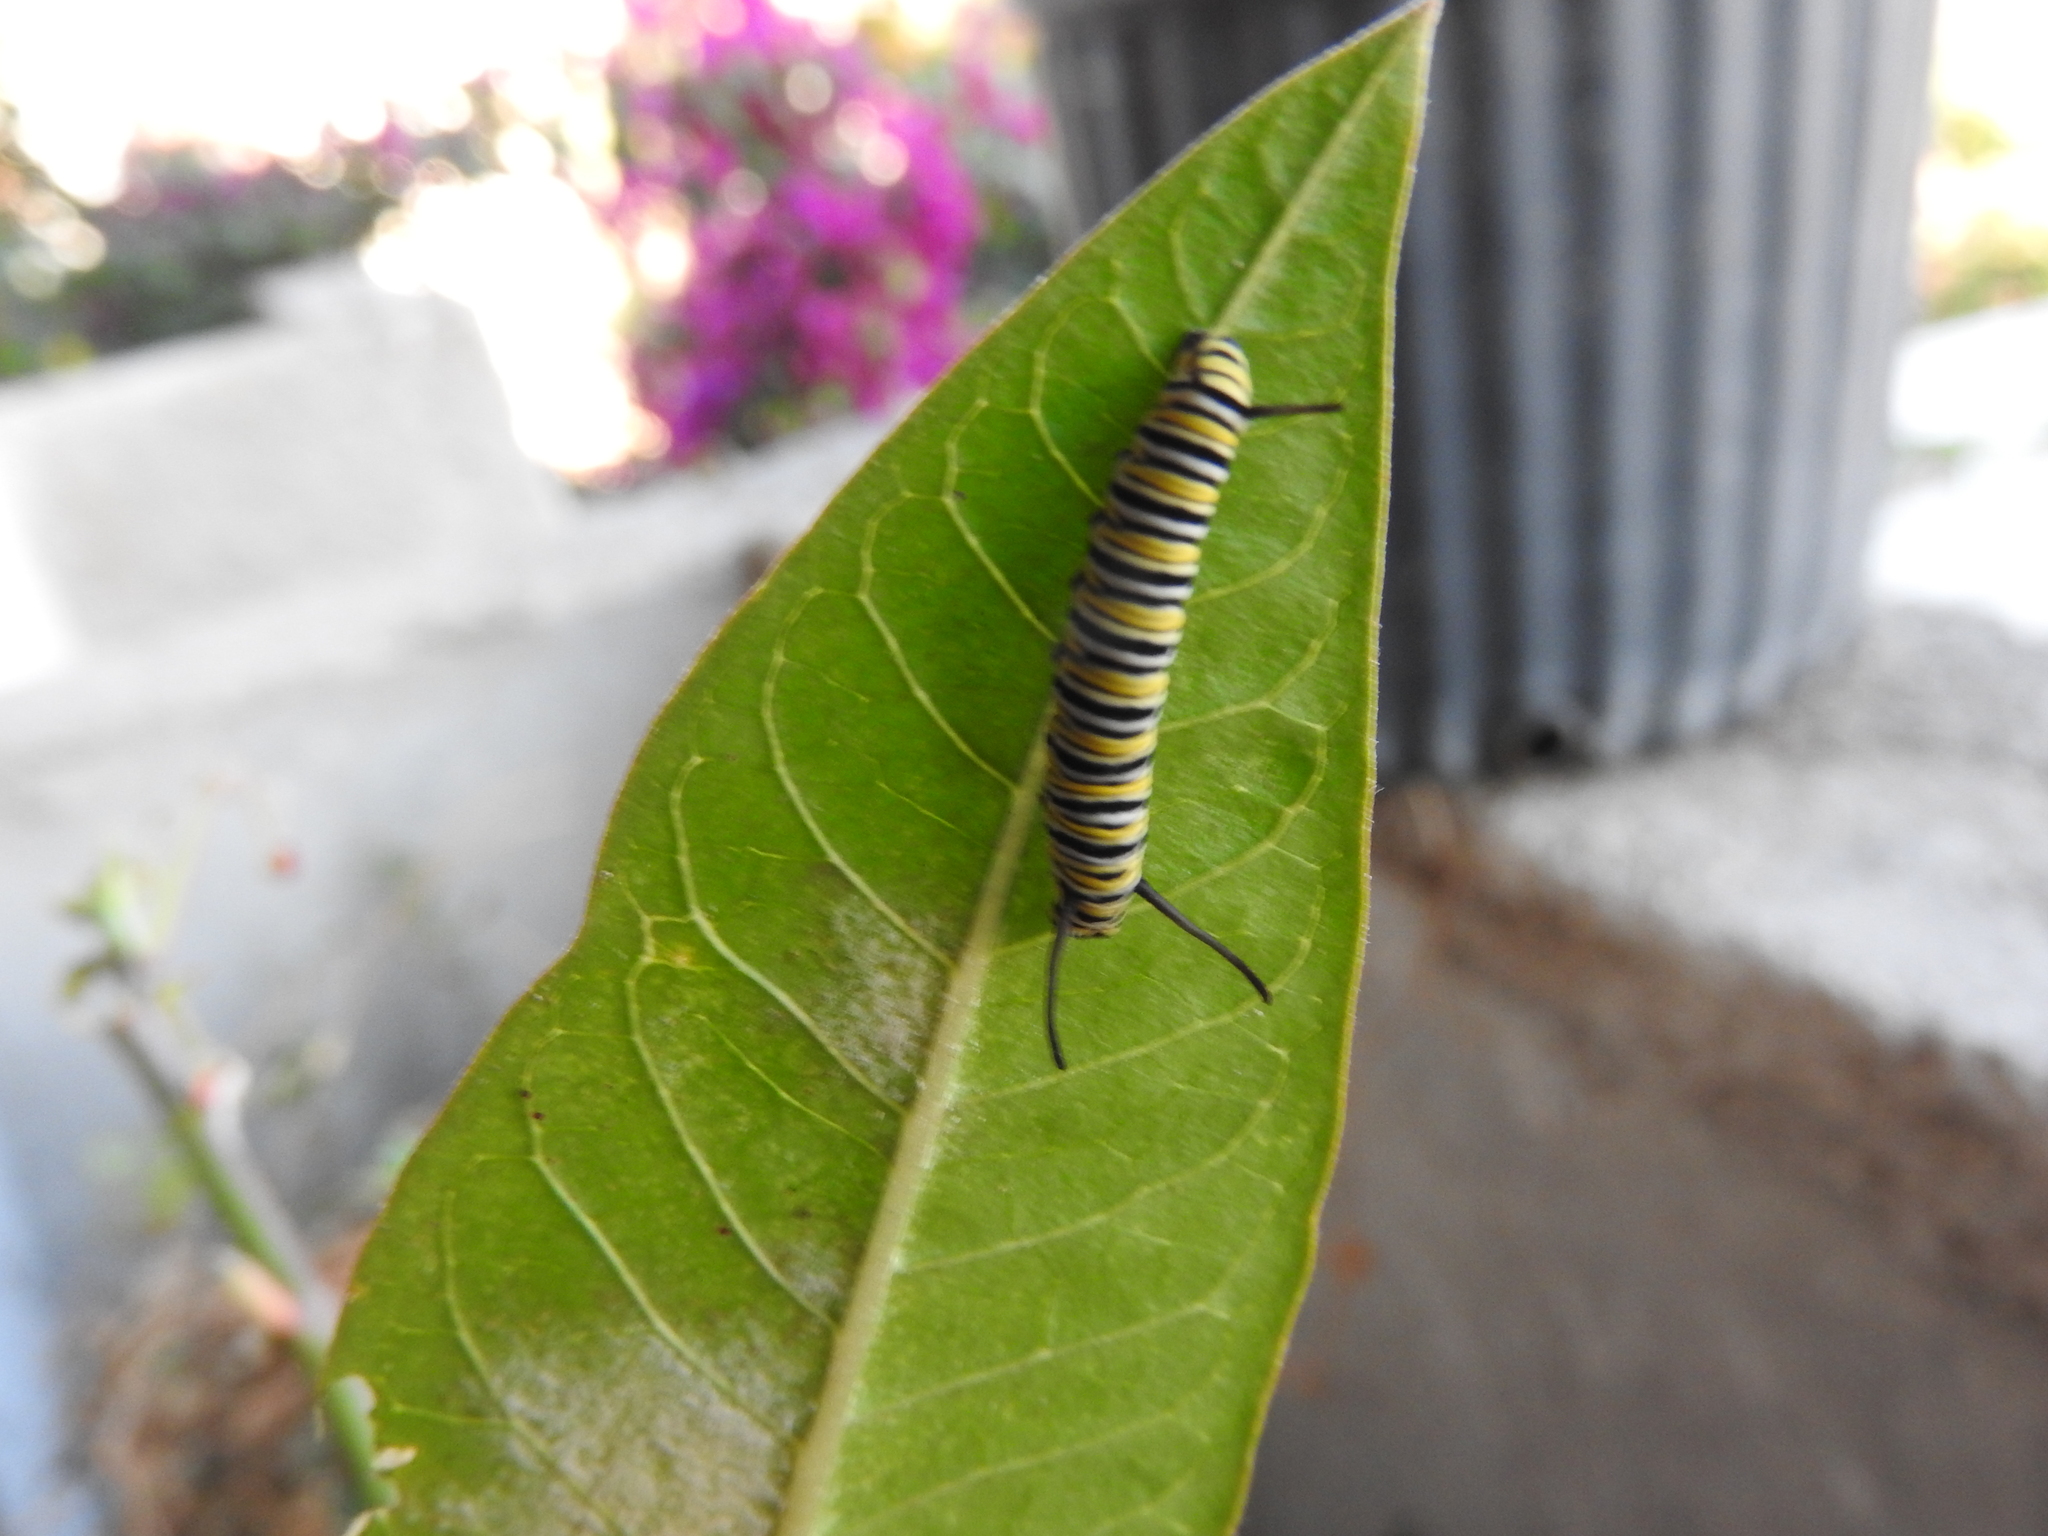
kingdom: Animalia
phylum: Arthropoda
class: Insecta
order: Lepidoptera
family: Nymphalidae
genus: Danaus
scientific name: Danaus plexippus
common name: Monarch
